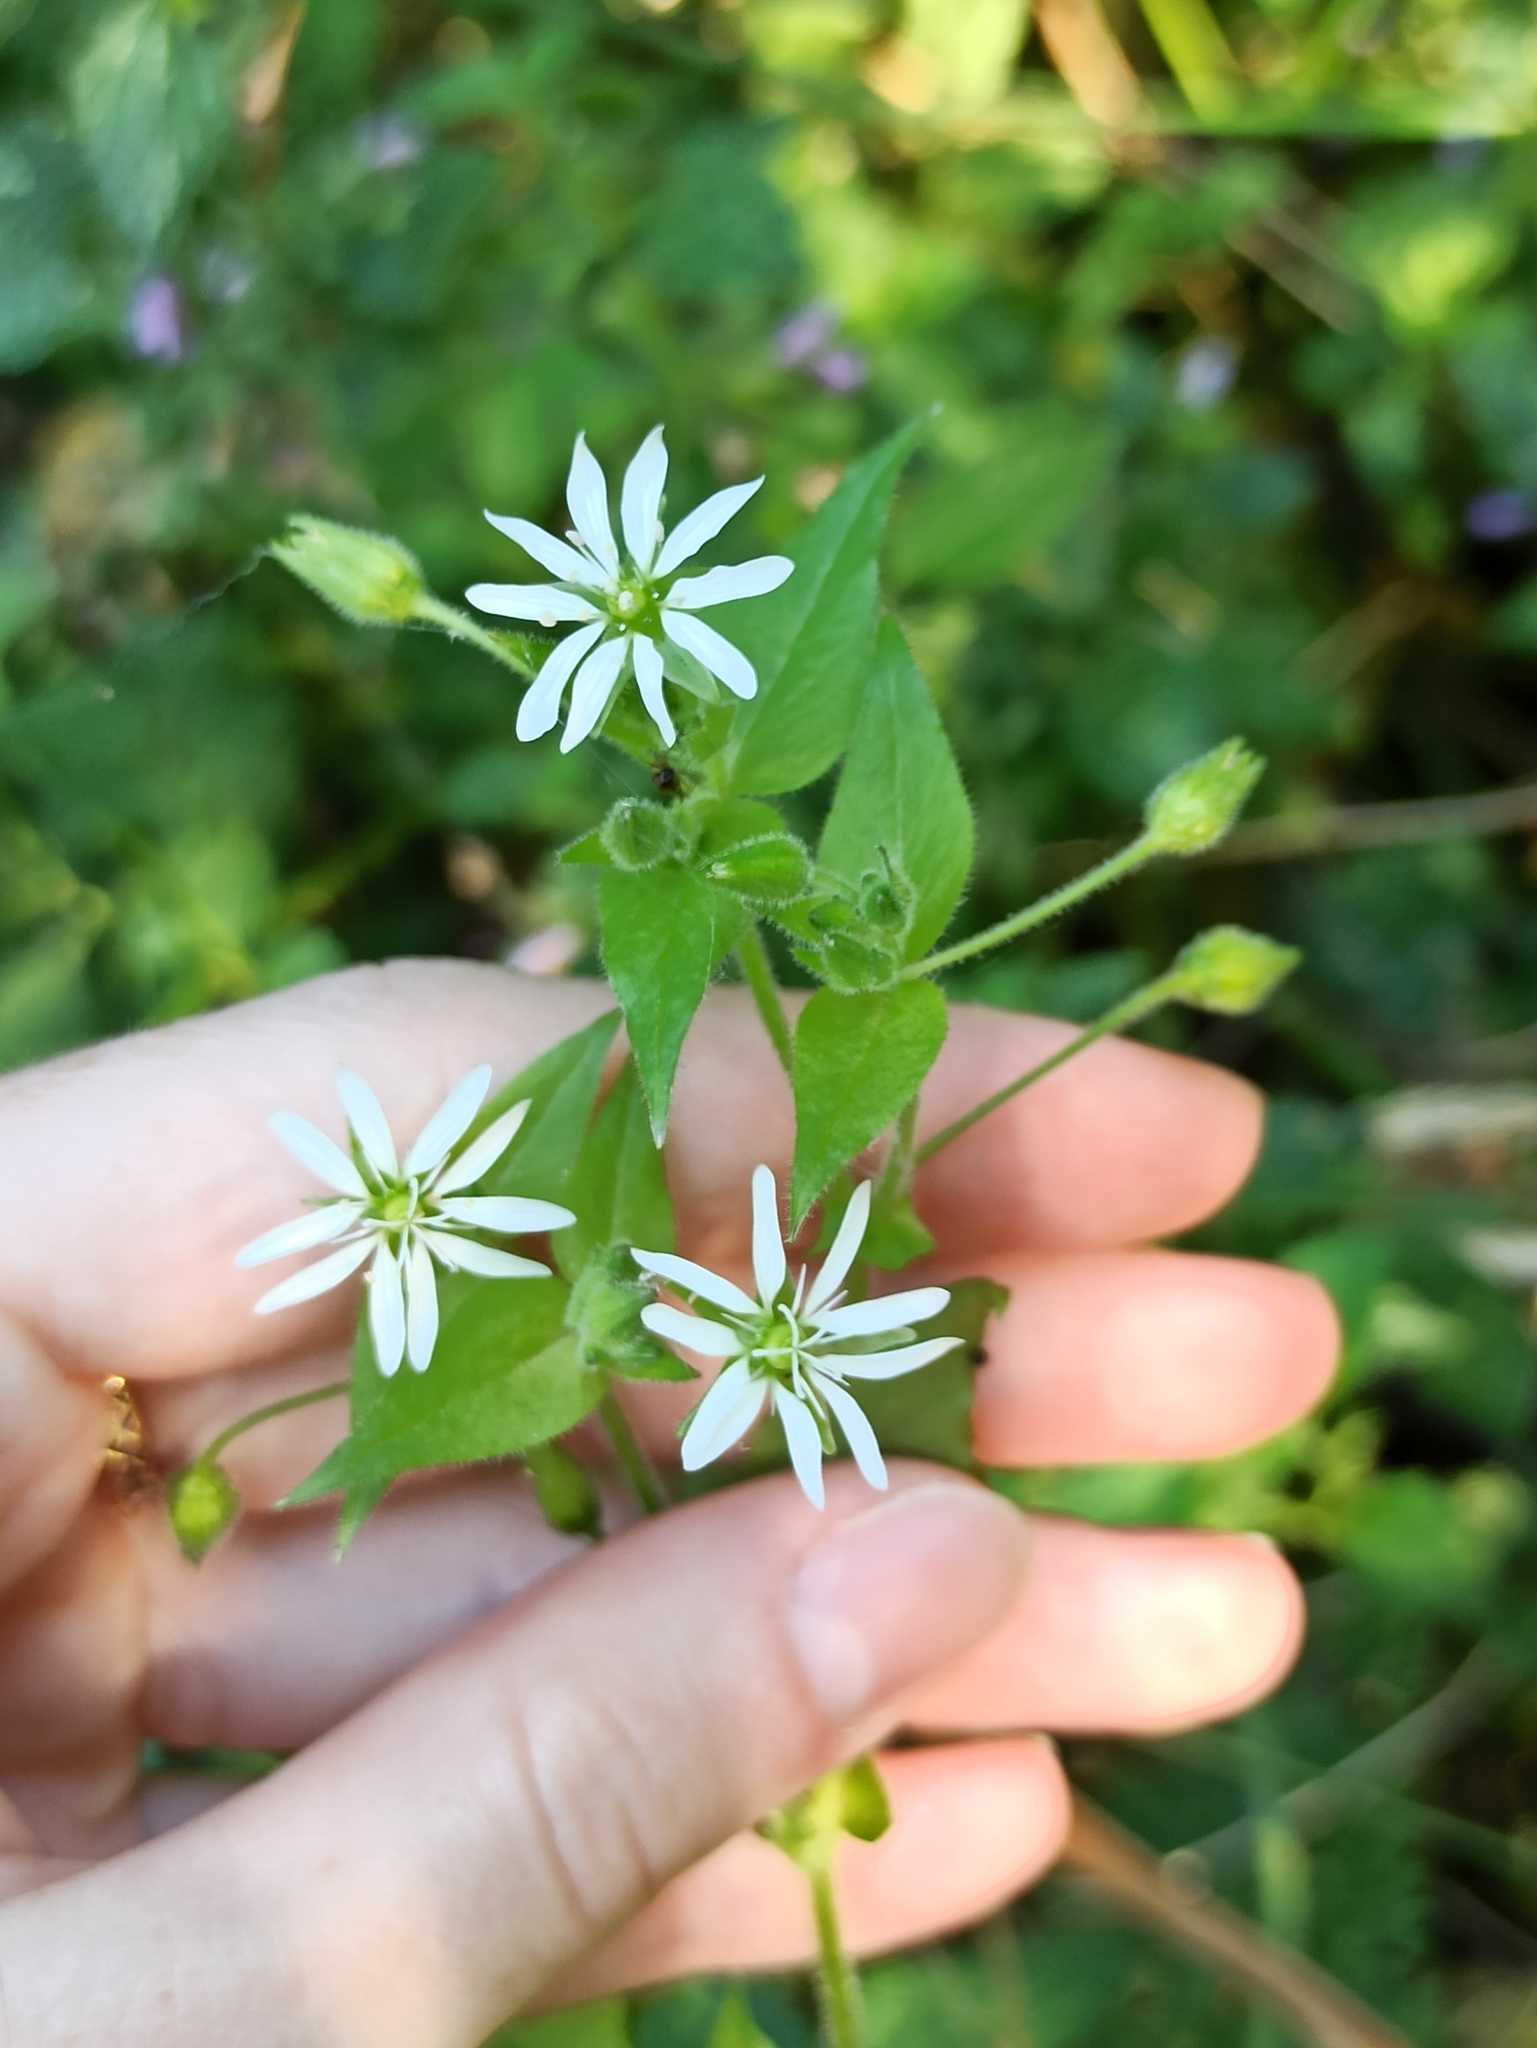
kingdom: Plantae
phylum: Tracheophyta
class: Magnoliopsida
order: Caryophyllales
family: Caryophyllaceae
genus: Stellaria
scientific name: Stellaria aquatica
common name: Water chickweed
